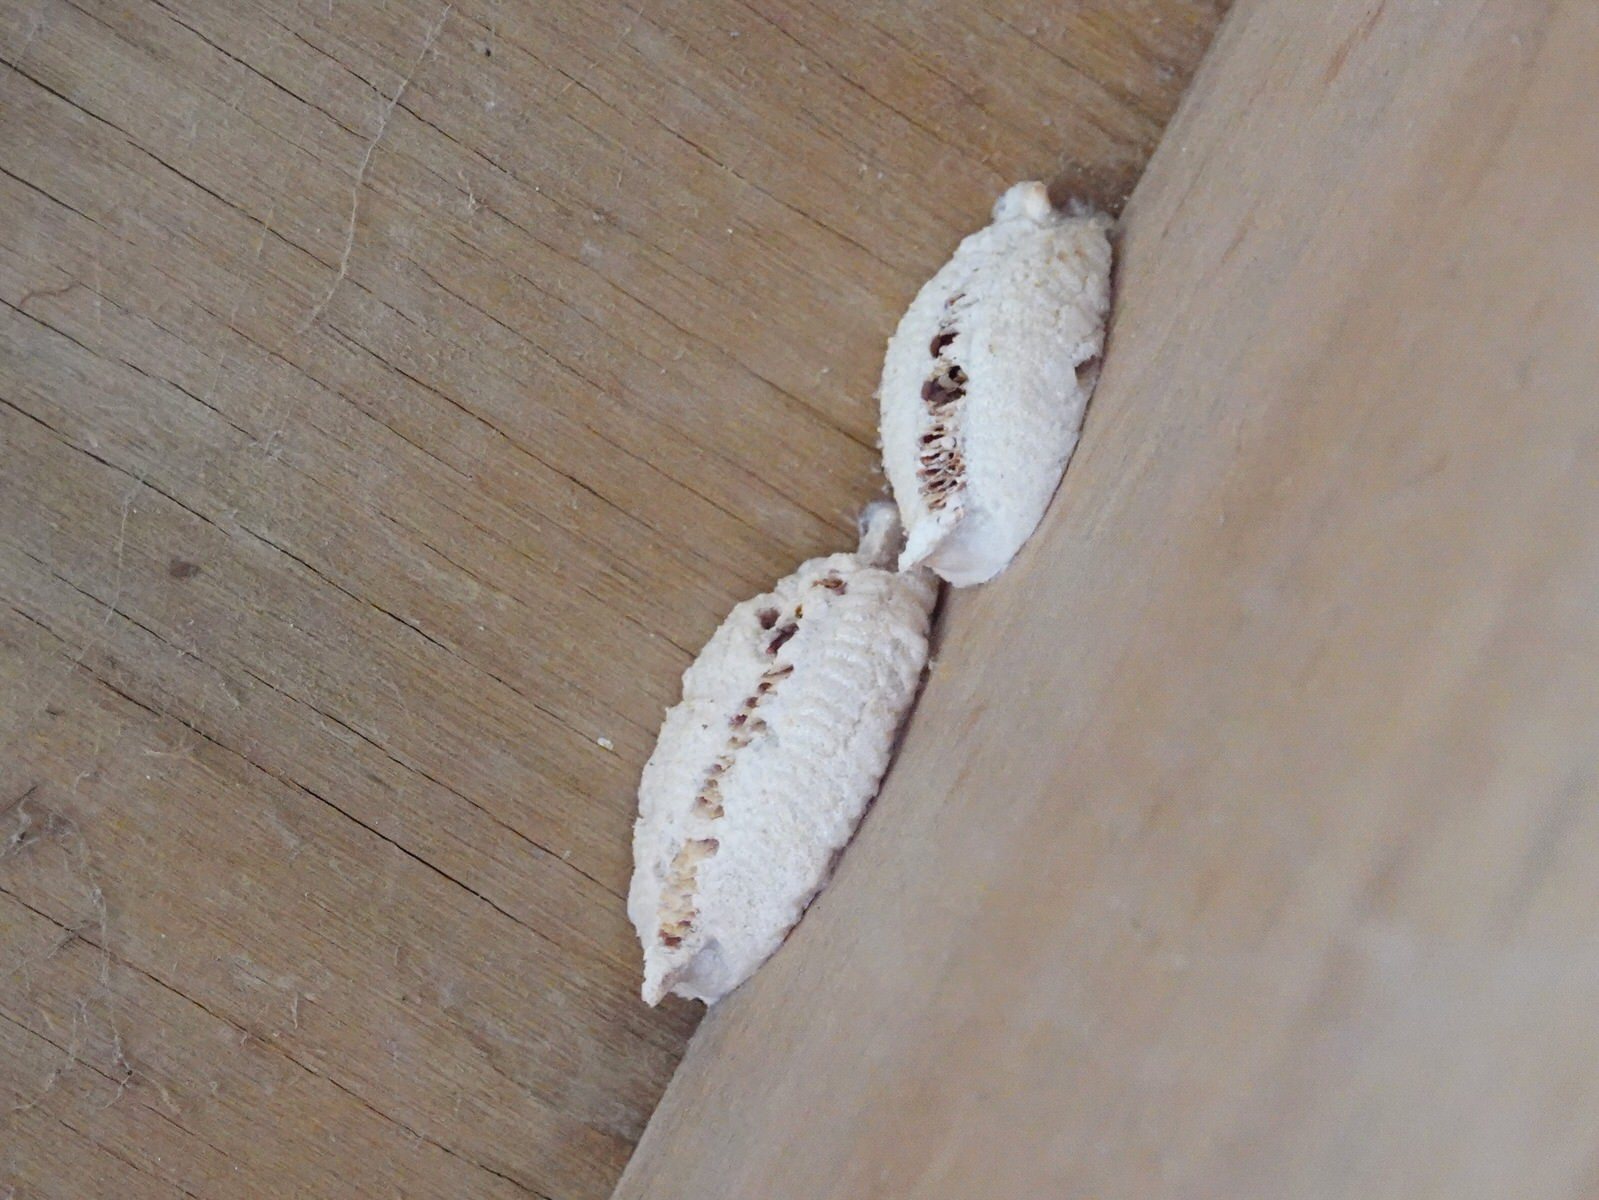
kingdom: Animalia
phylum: Arthropoda
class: Insecta
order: Mantodea
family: Miomantidae
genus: Miomantis
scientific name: Miomantis caffra
